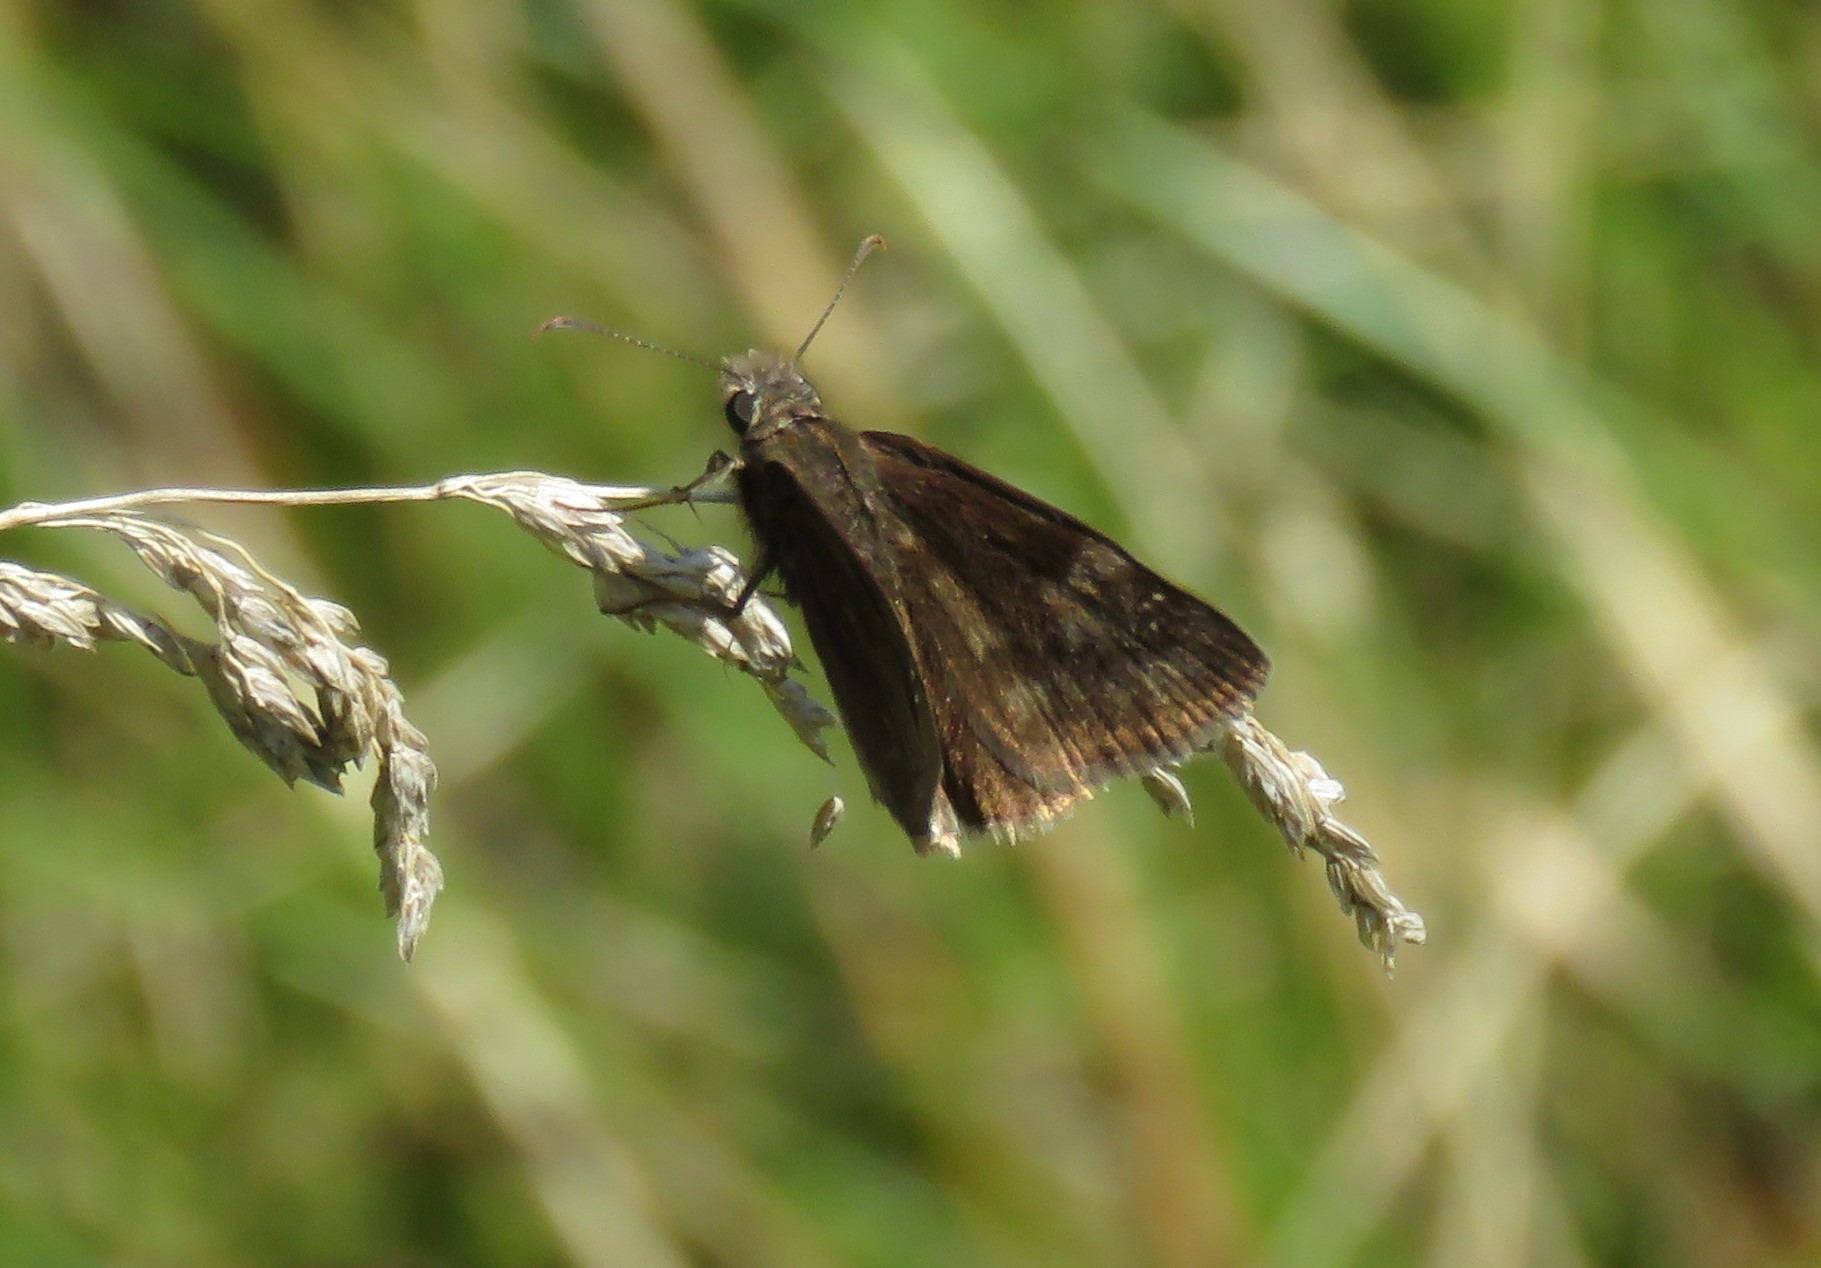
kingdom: Animalia
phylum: Arthropoda
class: Insecta
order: Lepidoptera
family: Hesperiidae
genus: Erynnis
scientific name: Erynnis baptisiae
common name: Wild indigo duskywing
